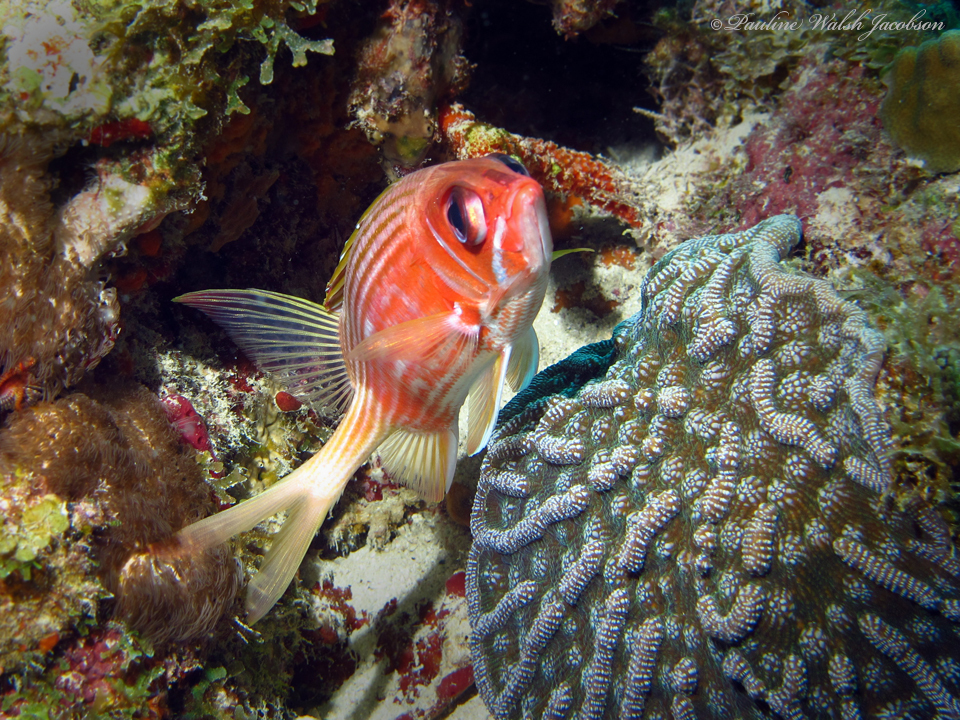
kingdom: Animalia
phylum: Chordata
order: Beryciformes
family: Holocentridae
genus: Holocentrus
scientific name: Holocentrus rufus
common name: Longspine squirrelfish
